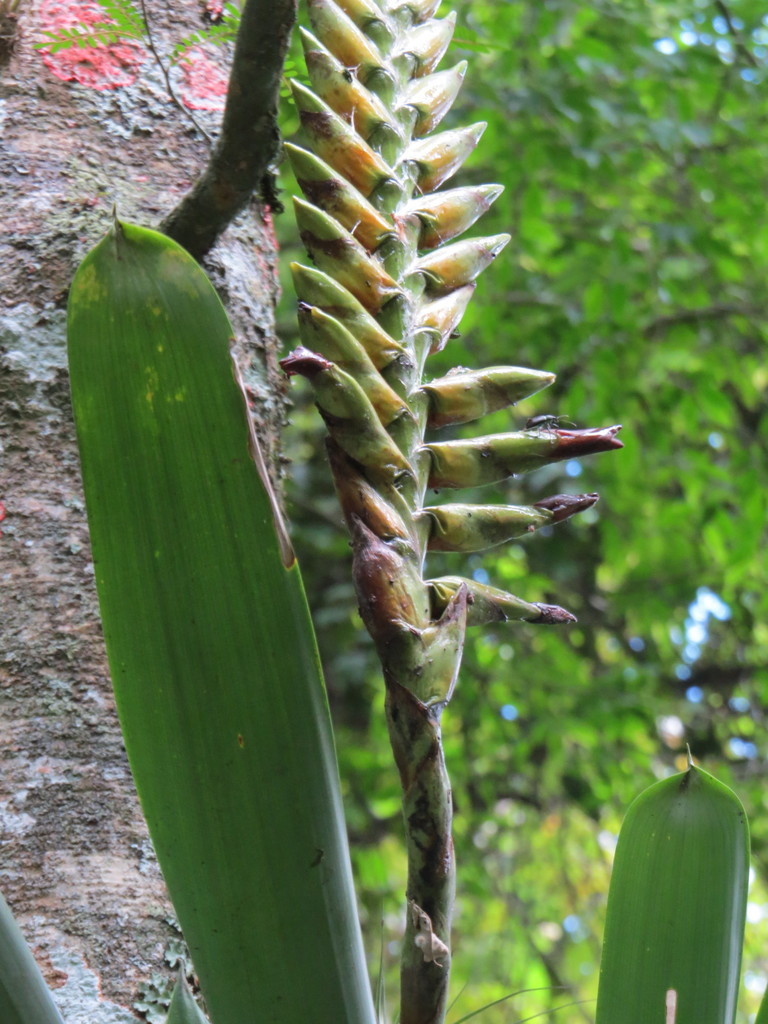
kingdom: Plantae
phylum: Tracheophyta
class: Liliopsida
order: Poales
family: Bromeliaceae
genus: Vriesea
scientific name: Vriesea bituminosa
